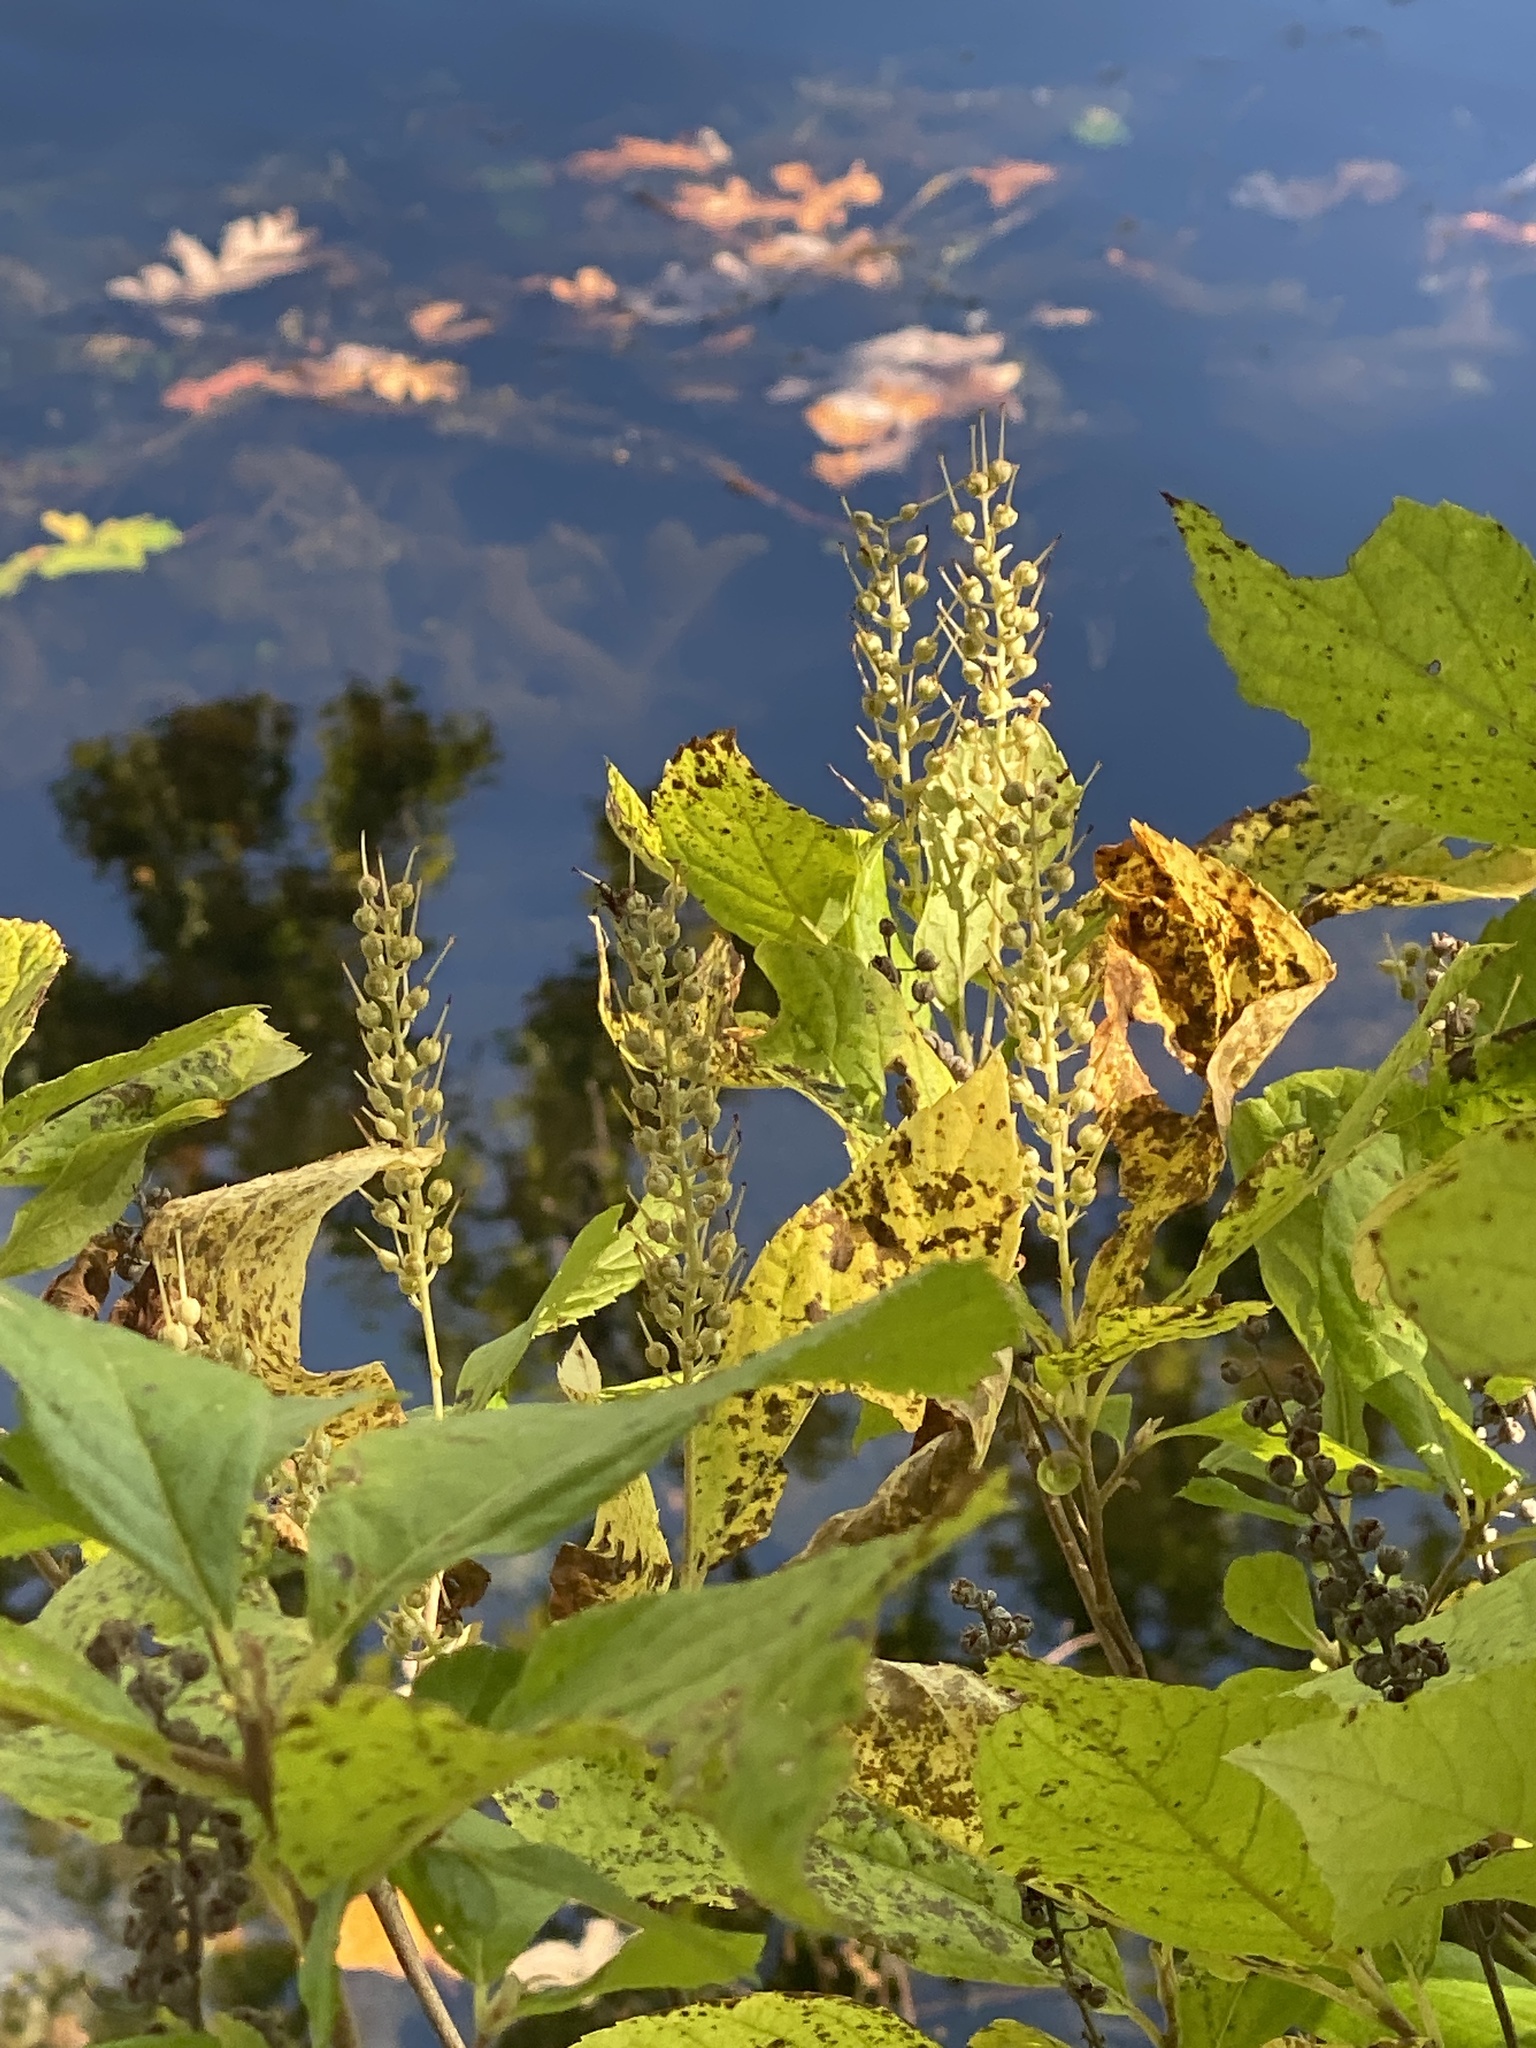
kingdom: Plantae
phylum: Tracheophyta
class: Magnoliopsida
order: Ericales
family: Clethraceae
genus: Clethra
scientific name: Clethra alnifolia
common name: Sweet pepperbush
